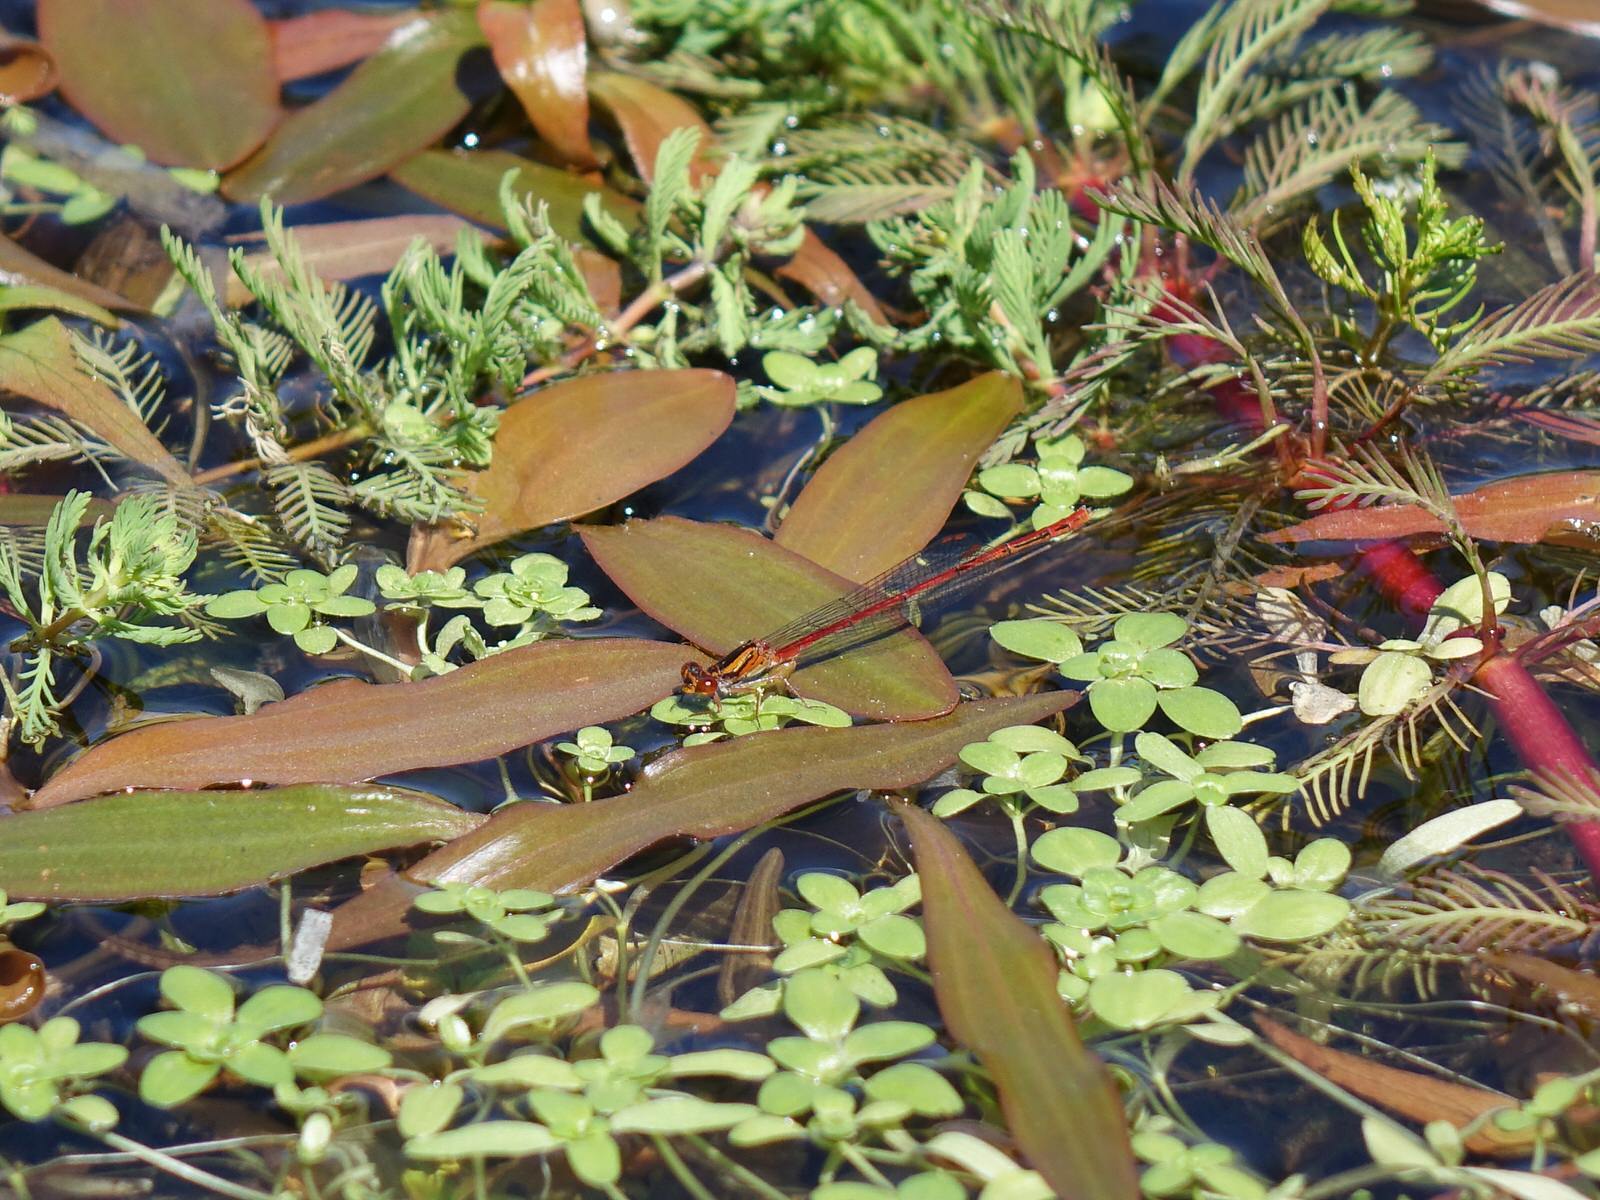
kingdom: Animalia
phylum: Arthropoda
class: Insecta
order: Odonata
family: Coenagrionidae
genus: Xanthocnemis
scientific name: Xanthocnemis zealandica
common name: Common redcoat damselfly
